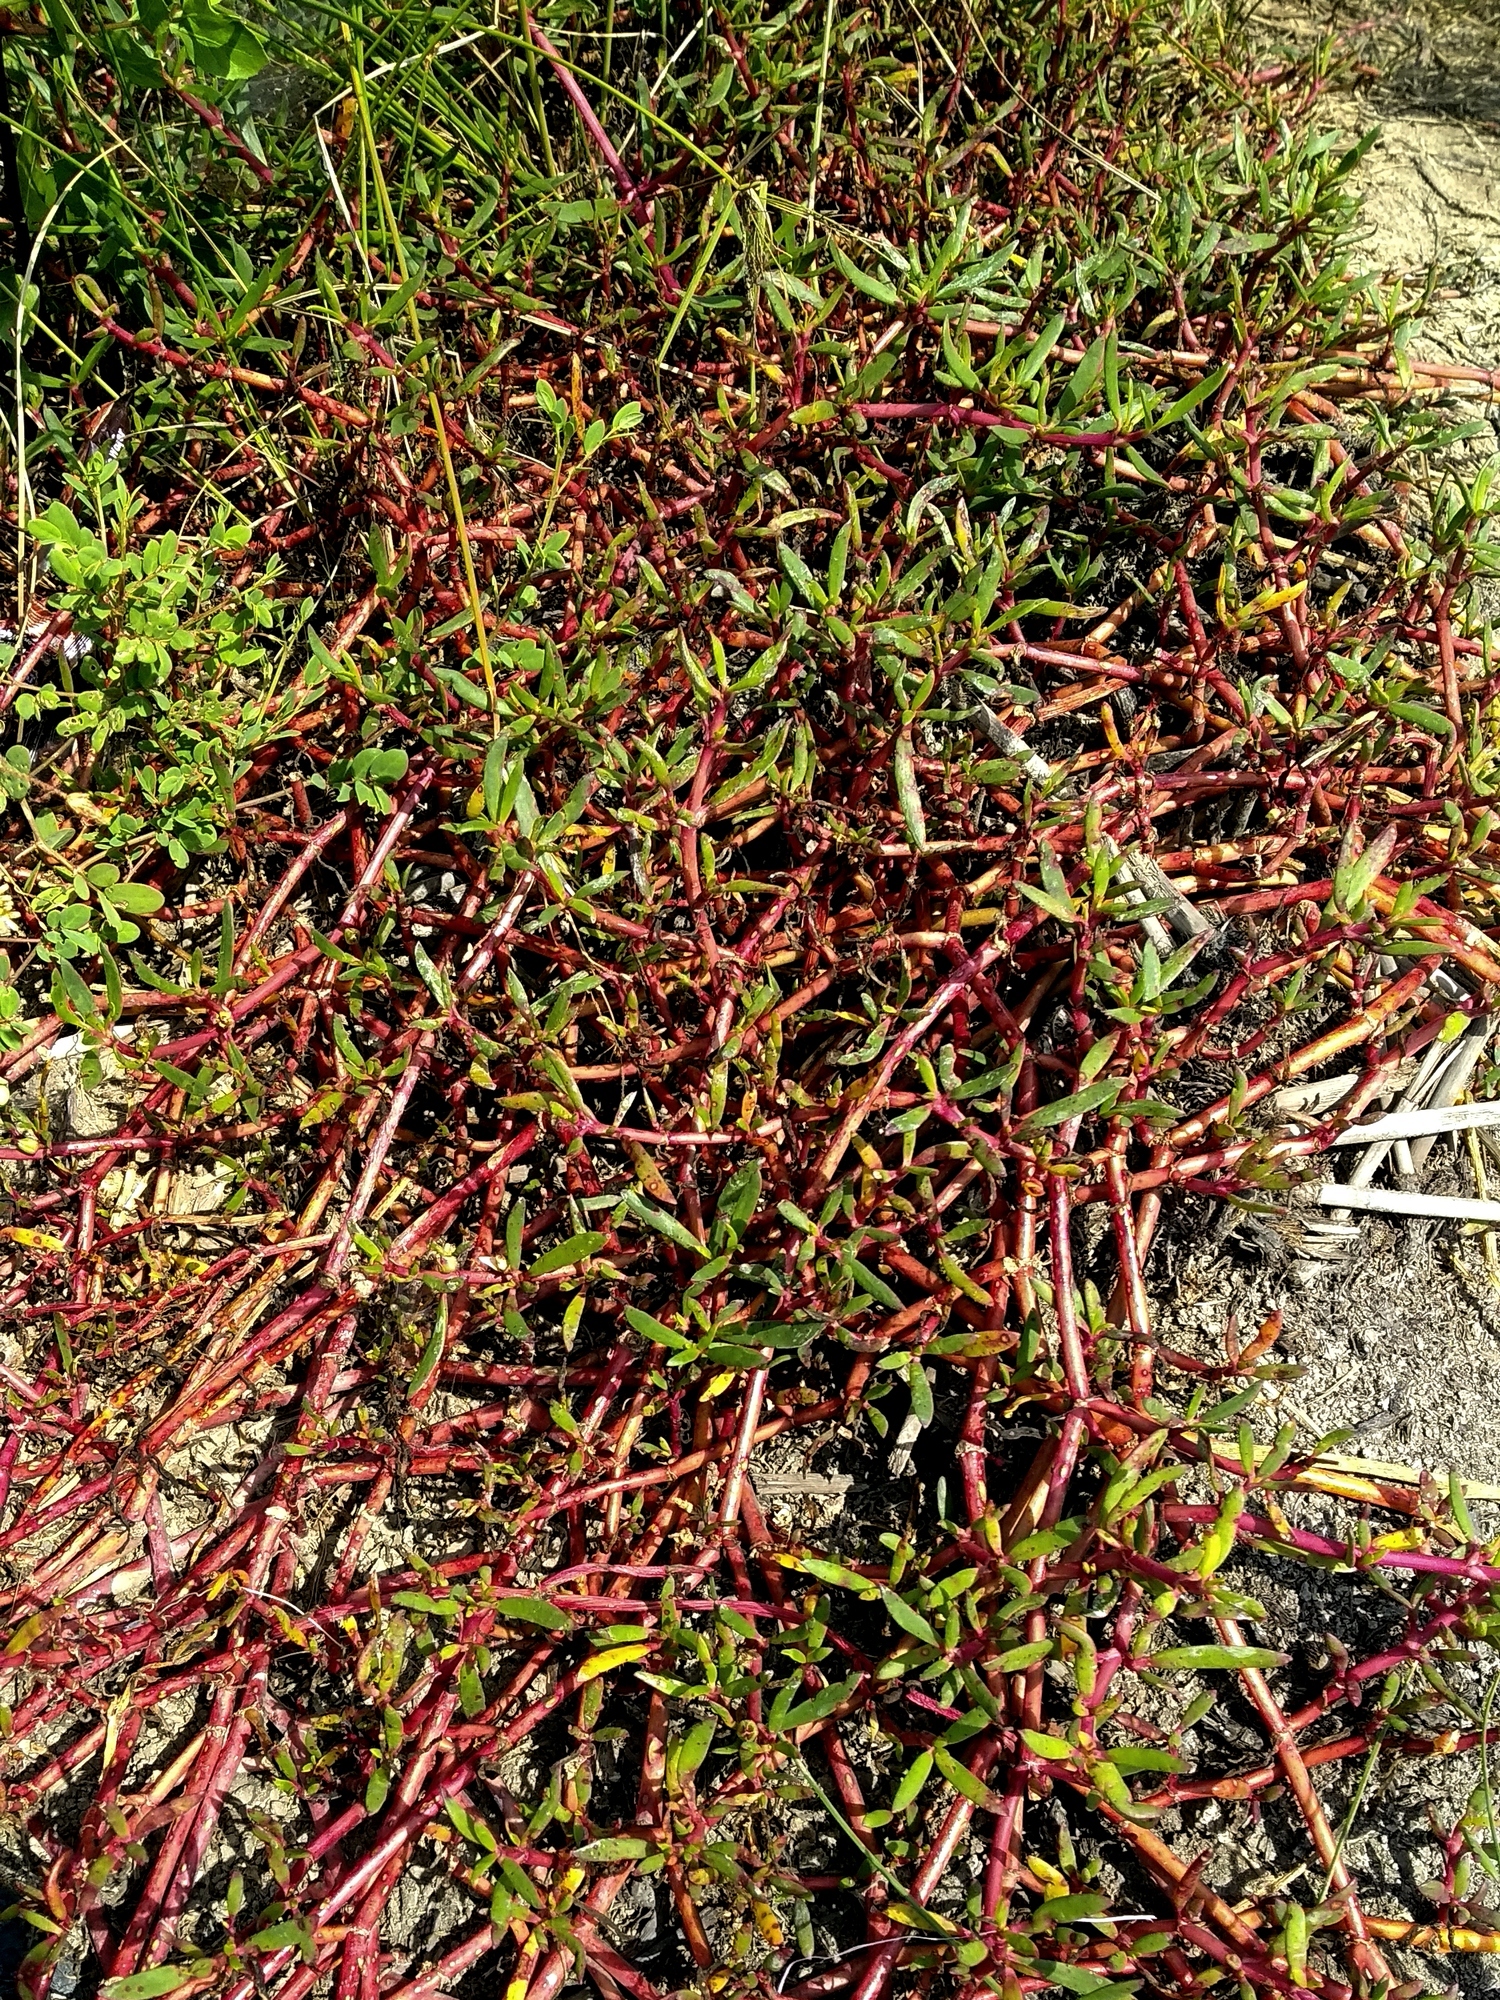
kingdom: Plantae
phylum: Tracheophyta
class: Magnoliopsida
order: Caryophyllales
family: Aizoaceae
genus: Sesuvium
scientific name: Sesuvium portulacastrum
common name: Sea-purslane
